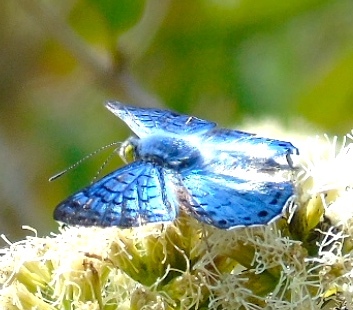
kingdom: Animalia
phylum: Arthropoda
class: Insecta
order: Lepidoptera
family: Riodinidae
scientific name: Riodinidae
